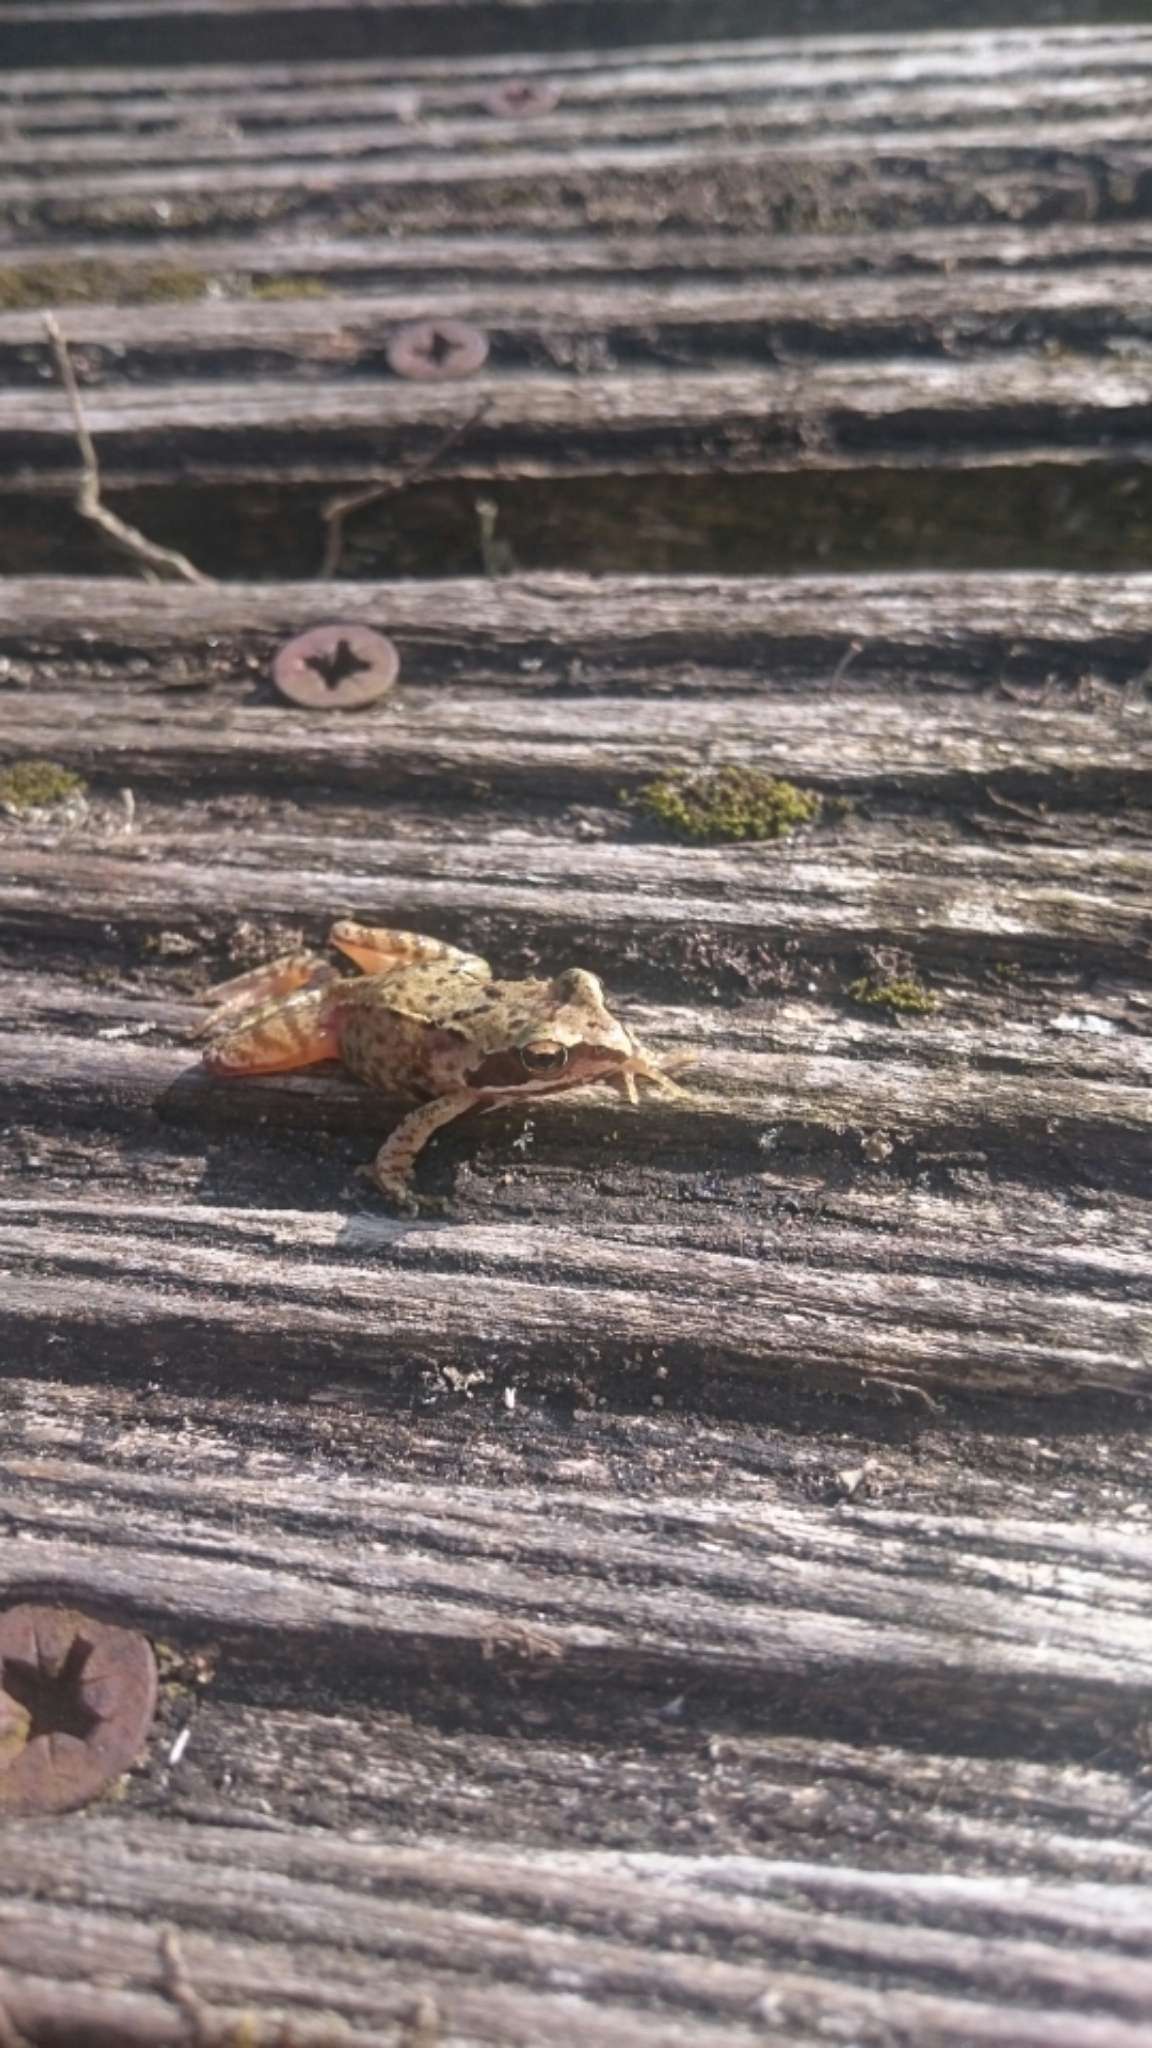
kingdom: Animalia
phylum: Chordata
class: Amphibia
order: Anura
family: Ranidae
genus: Rana
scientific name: Rana temporaria
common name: Common frog
